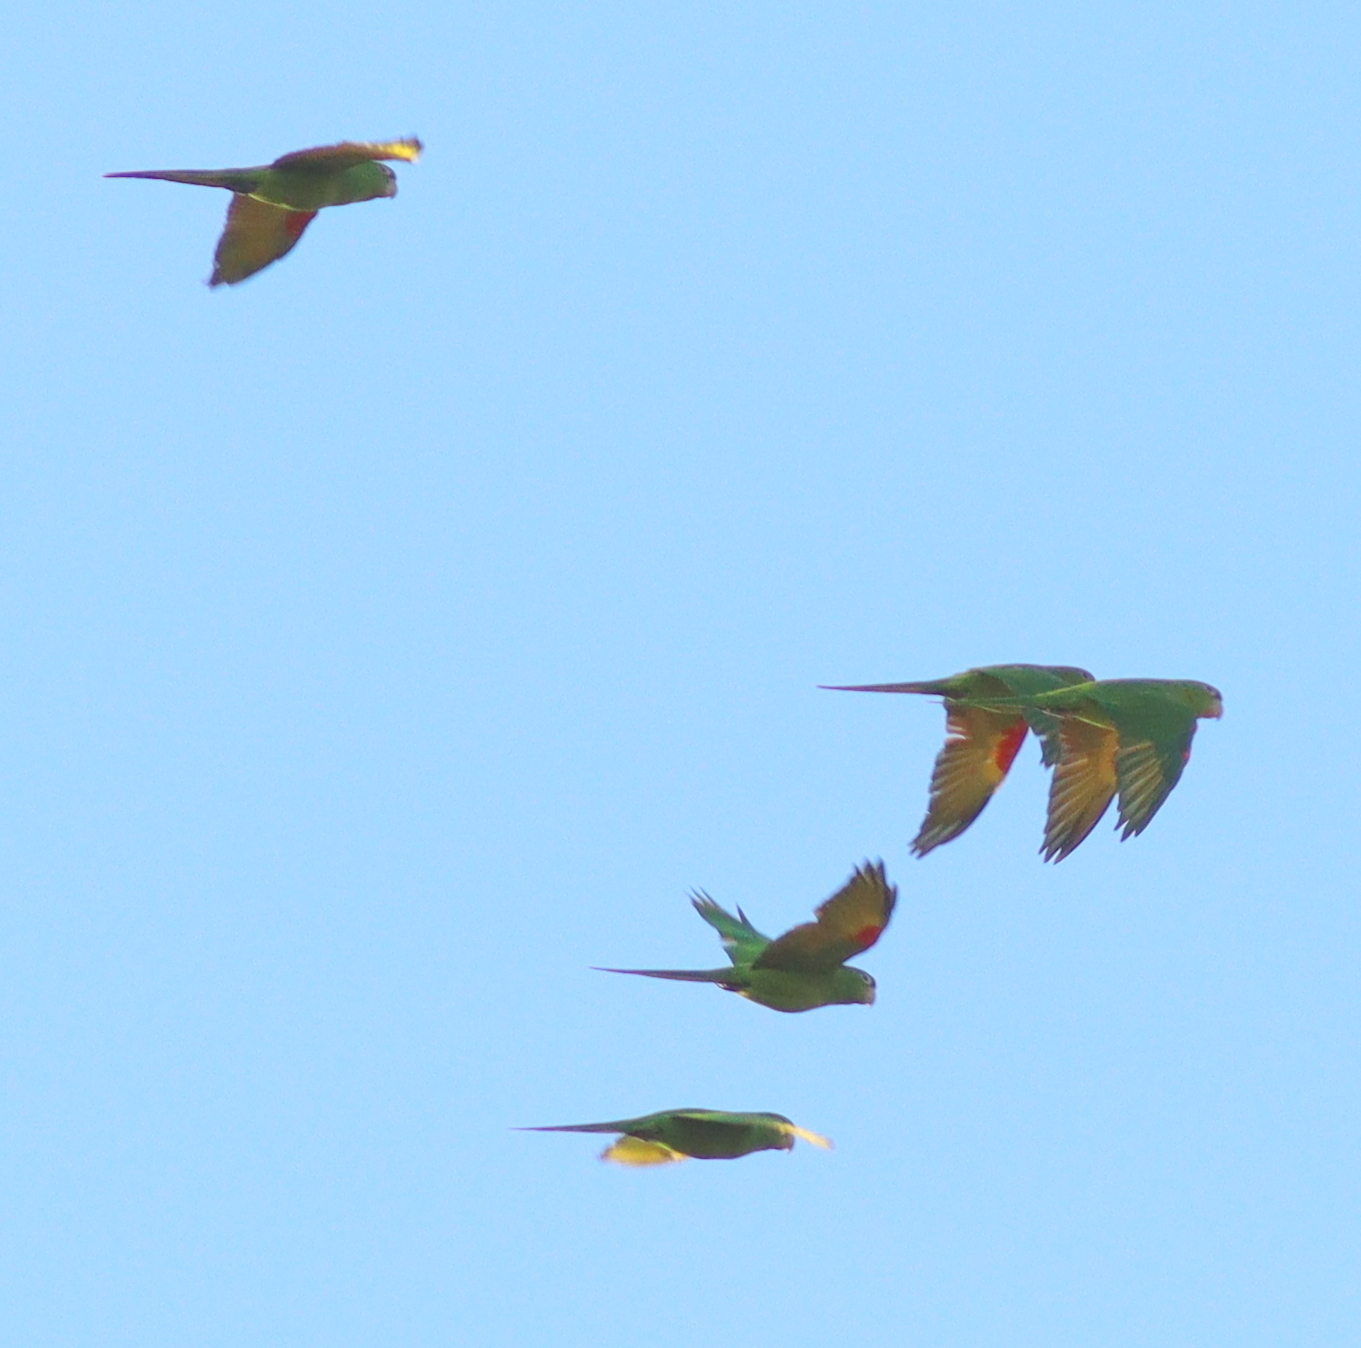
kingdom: Animalia
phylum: Chordata
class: Aves
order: Psittaciformes
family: Psittacidae
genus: Aratinga
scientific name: Aratinga leucophthalma
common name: White-eyed parakeet
